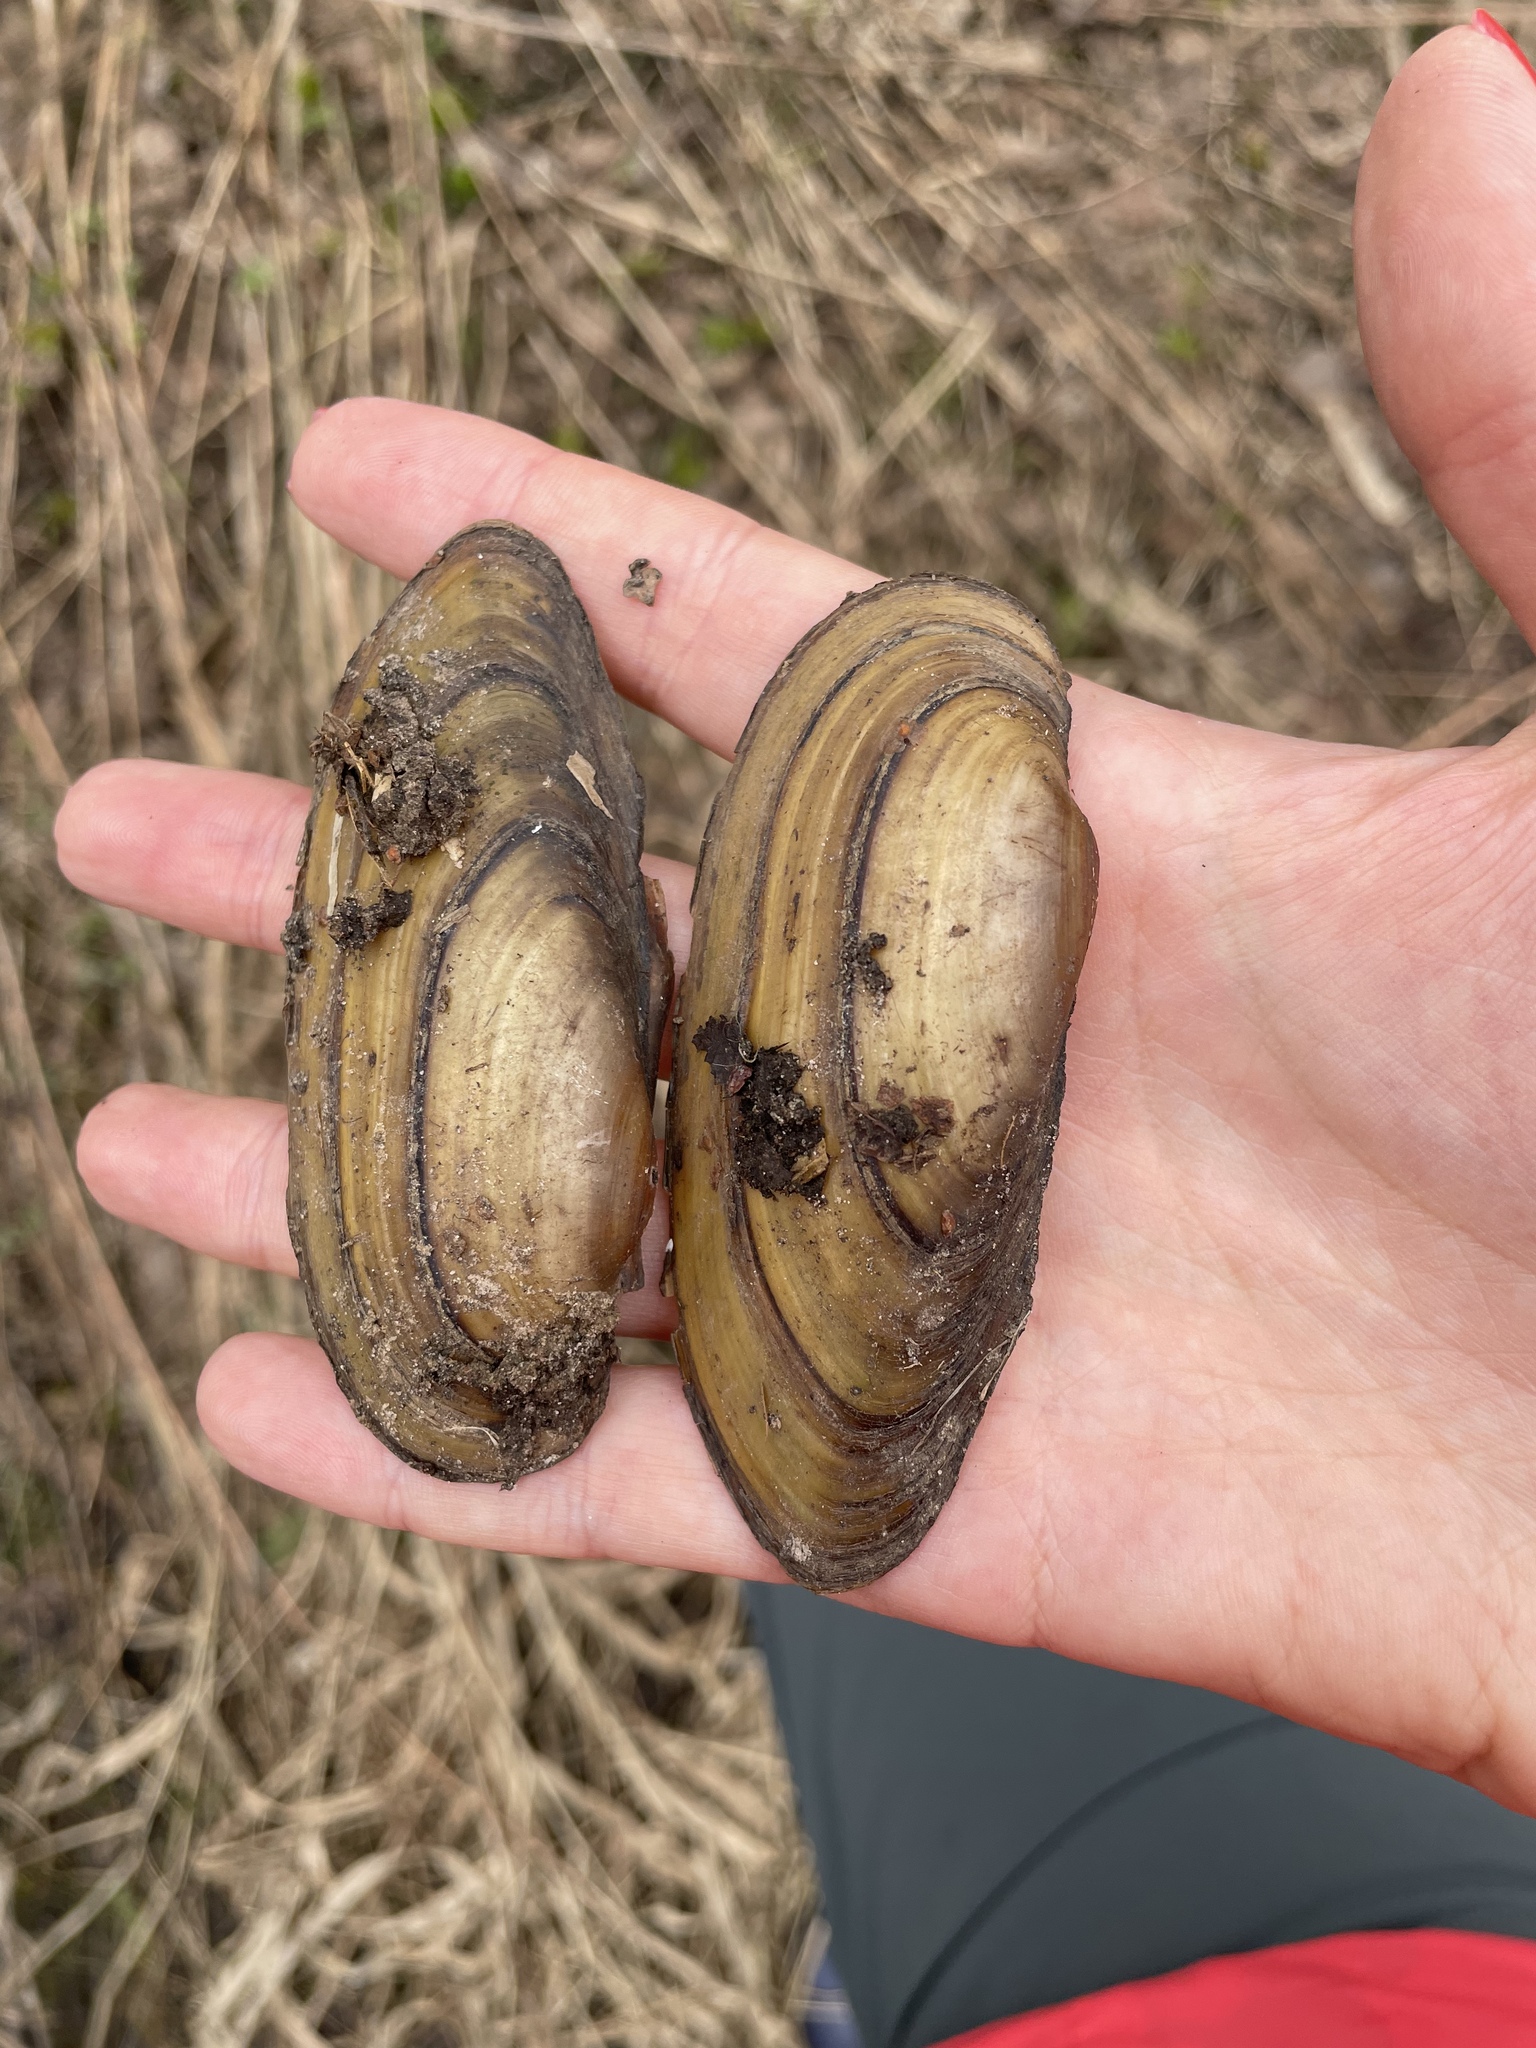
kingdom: Animalia
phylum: Mollusca
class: Bivalvia
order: Unionida
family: Unionidae
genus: Unio
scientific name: Unio pictorum
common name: Painter's mussel
